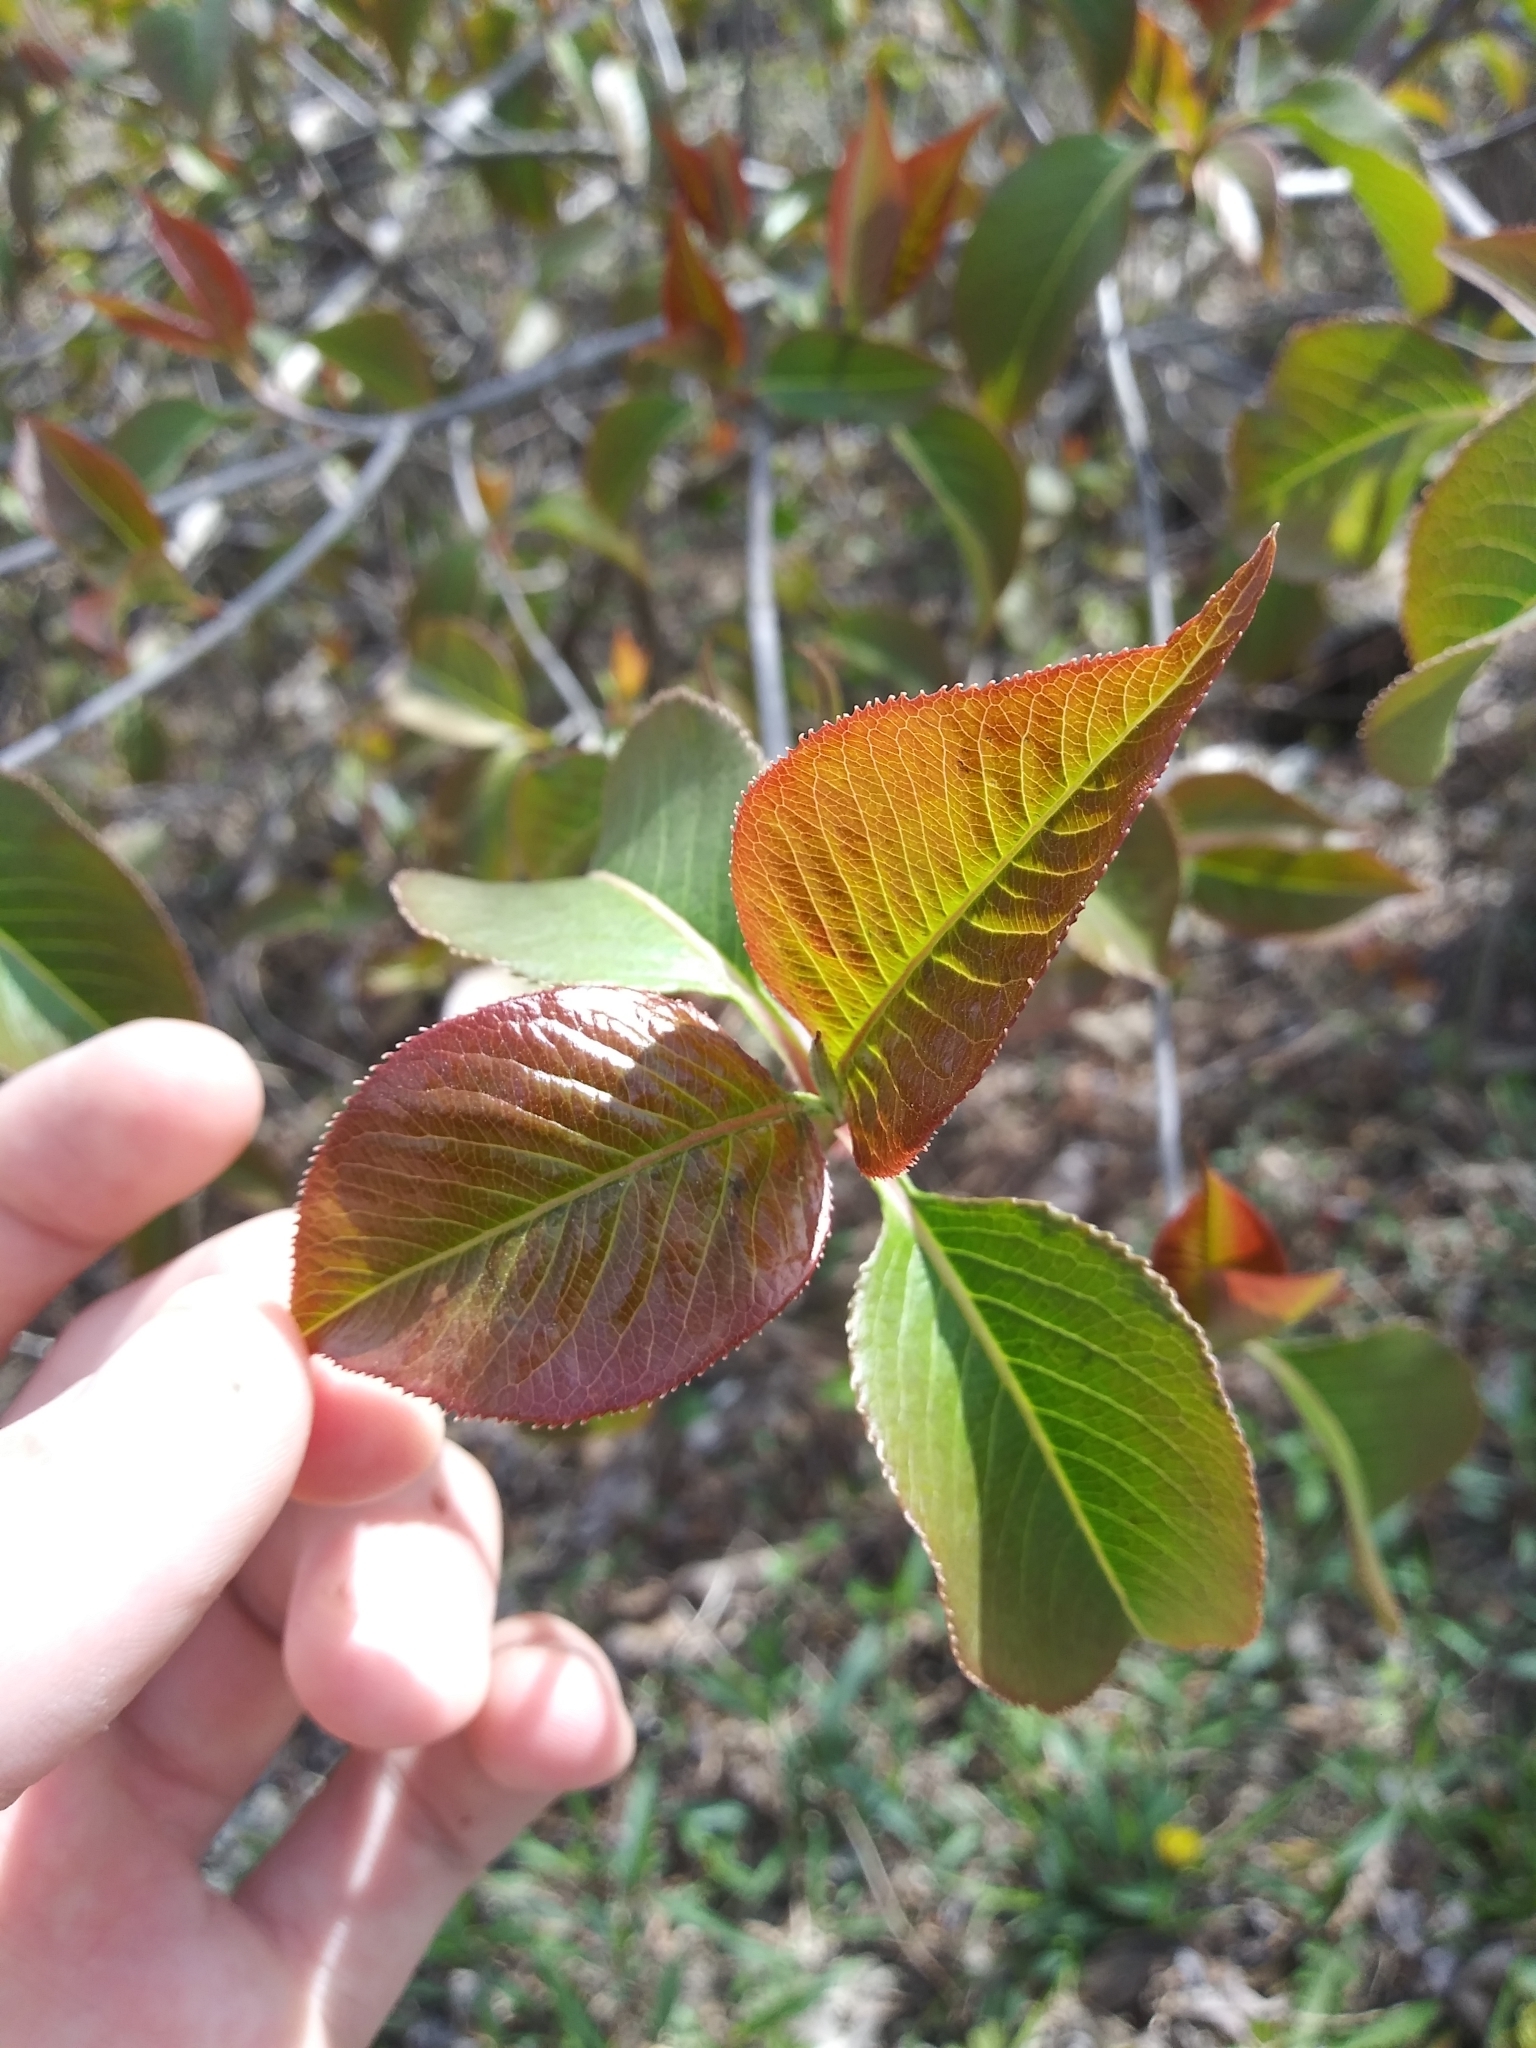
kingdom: Plantae
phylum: Tracheophyta
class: Magnoliopsida
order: Dipsacales
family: Viburnaceae
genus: Viburnum
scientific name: Viburnum lentago
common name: Black haw
